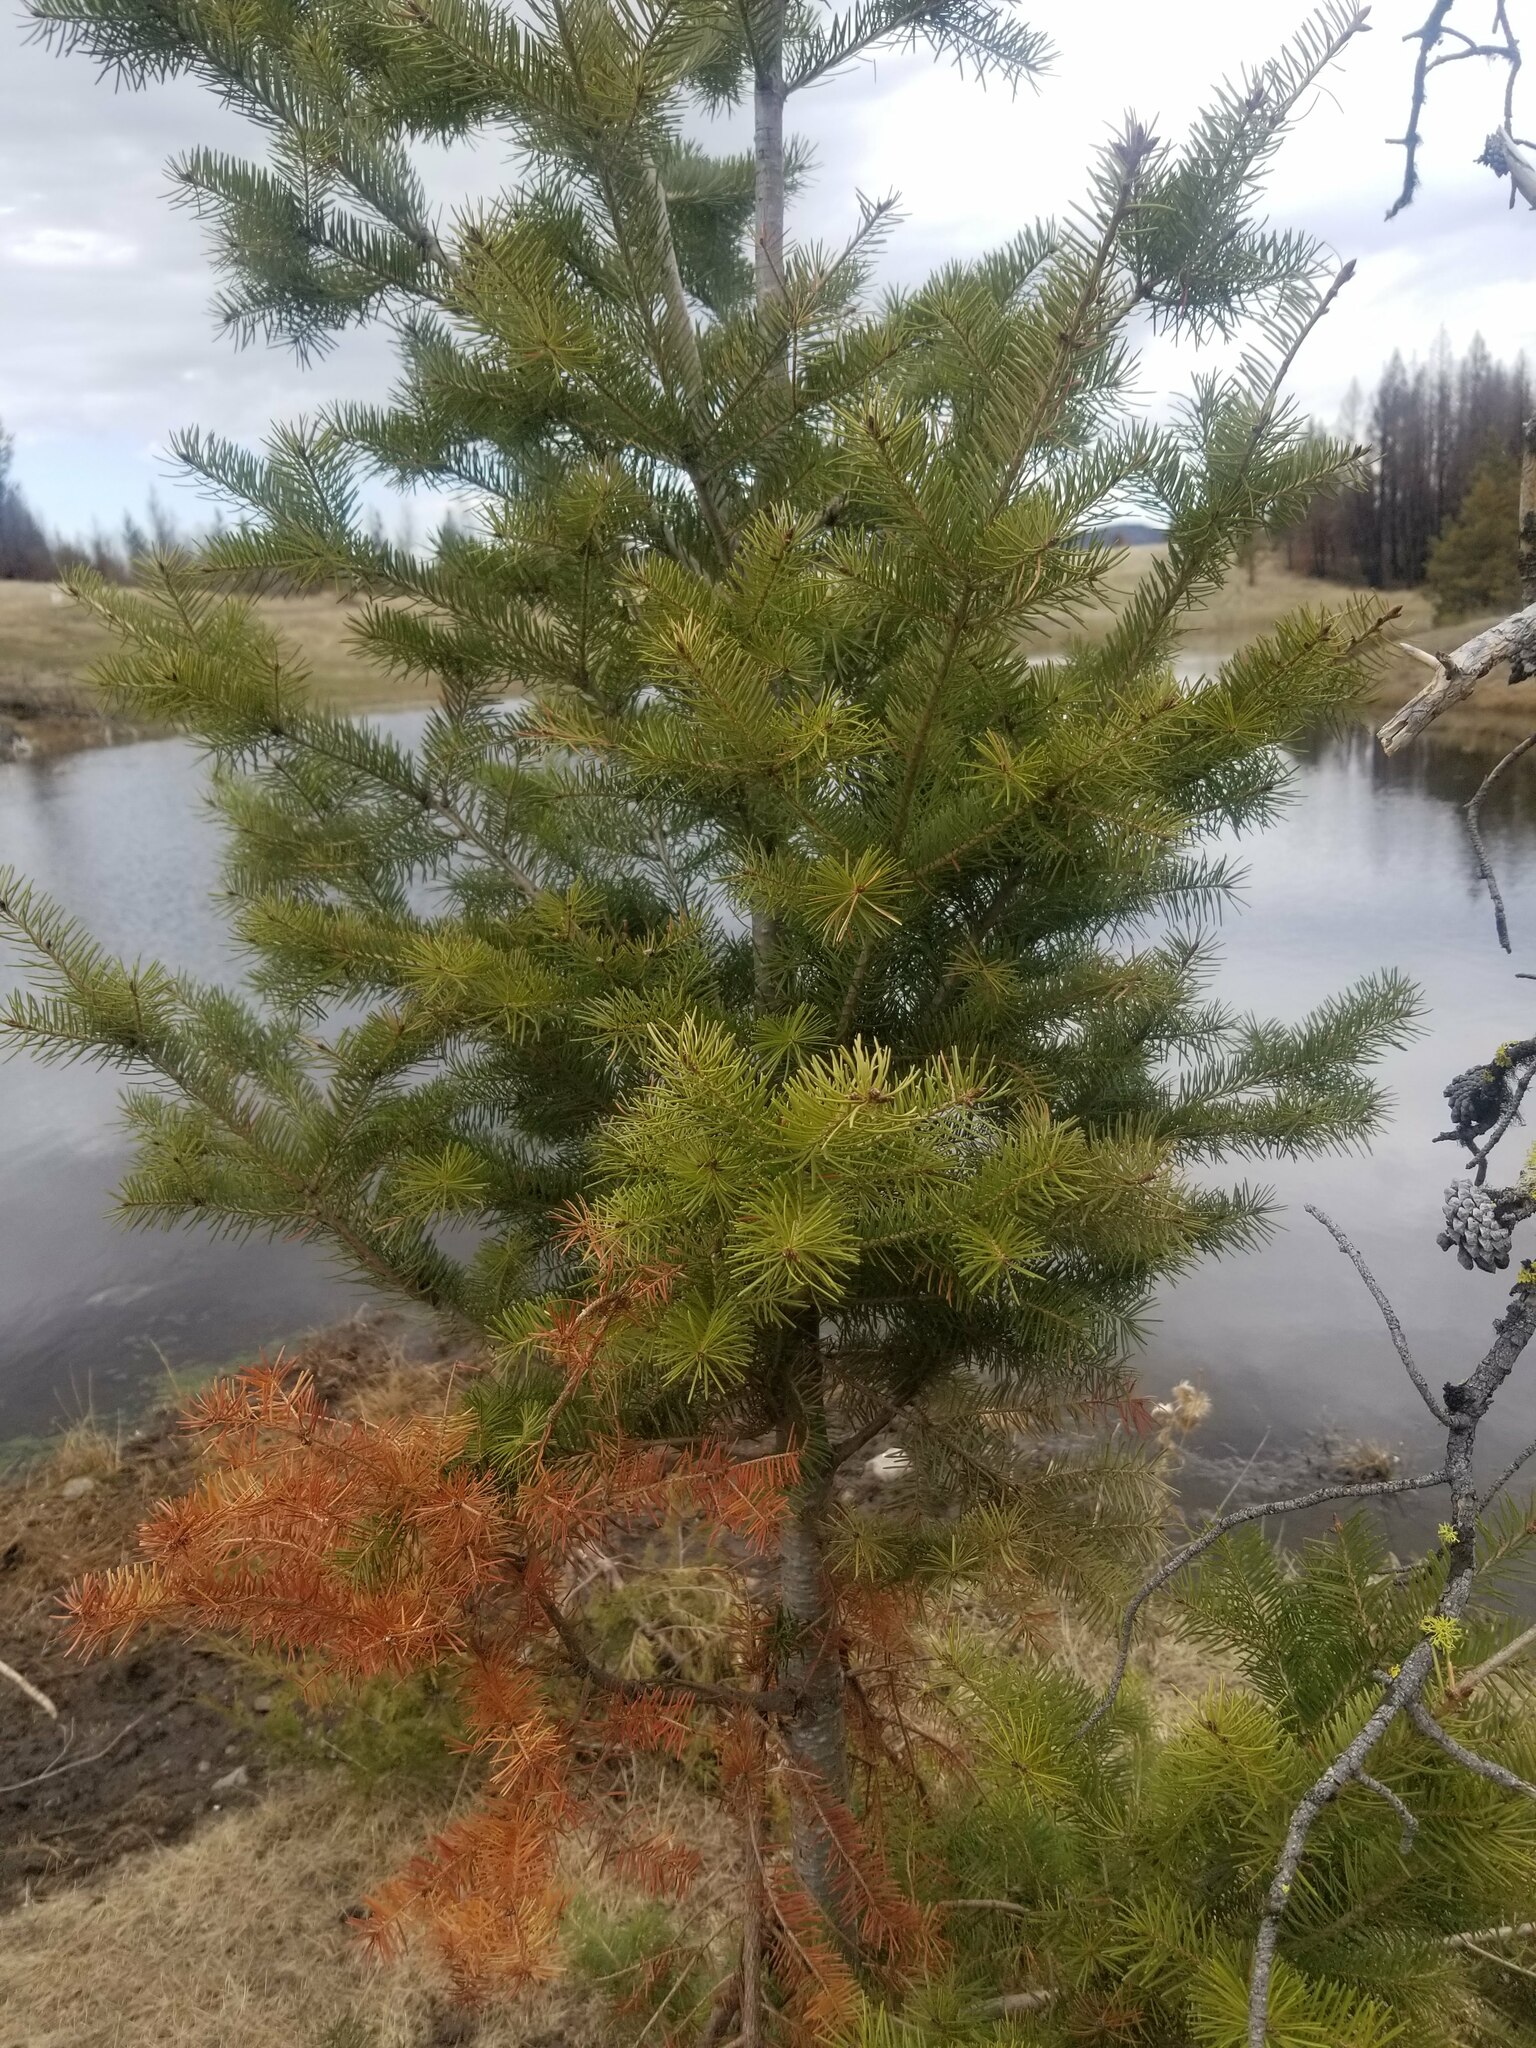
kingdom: Plantae
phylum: Tracheophyta
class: Pinopsida
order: Pinales
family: Pinaceae
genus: Pseudotsuga
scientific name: Pseudotsuga menziesii
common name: Douglas fir
